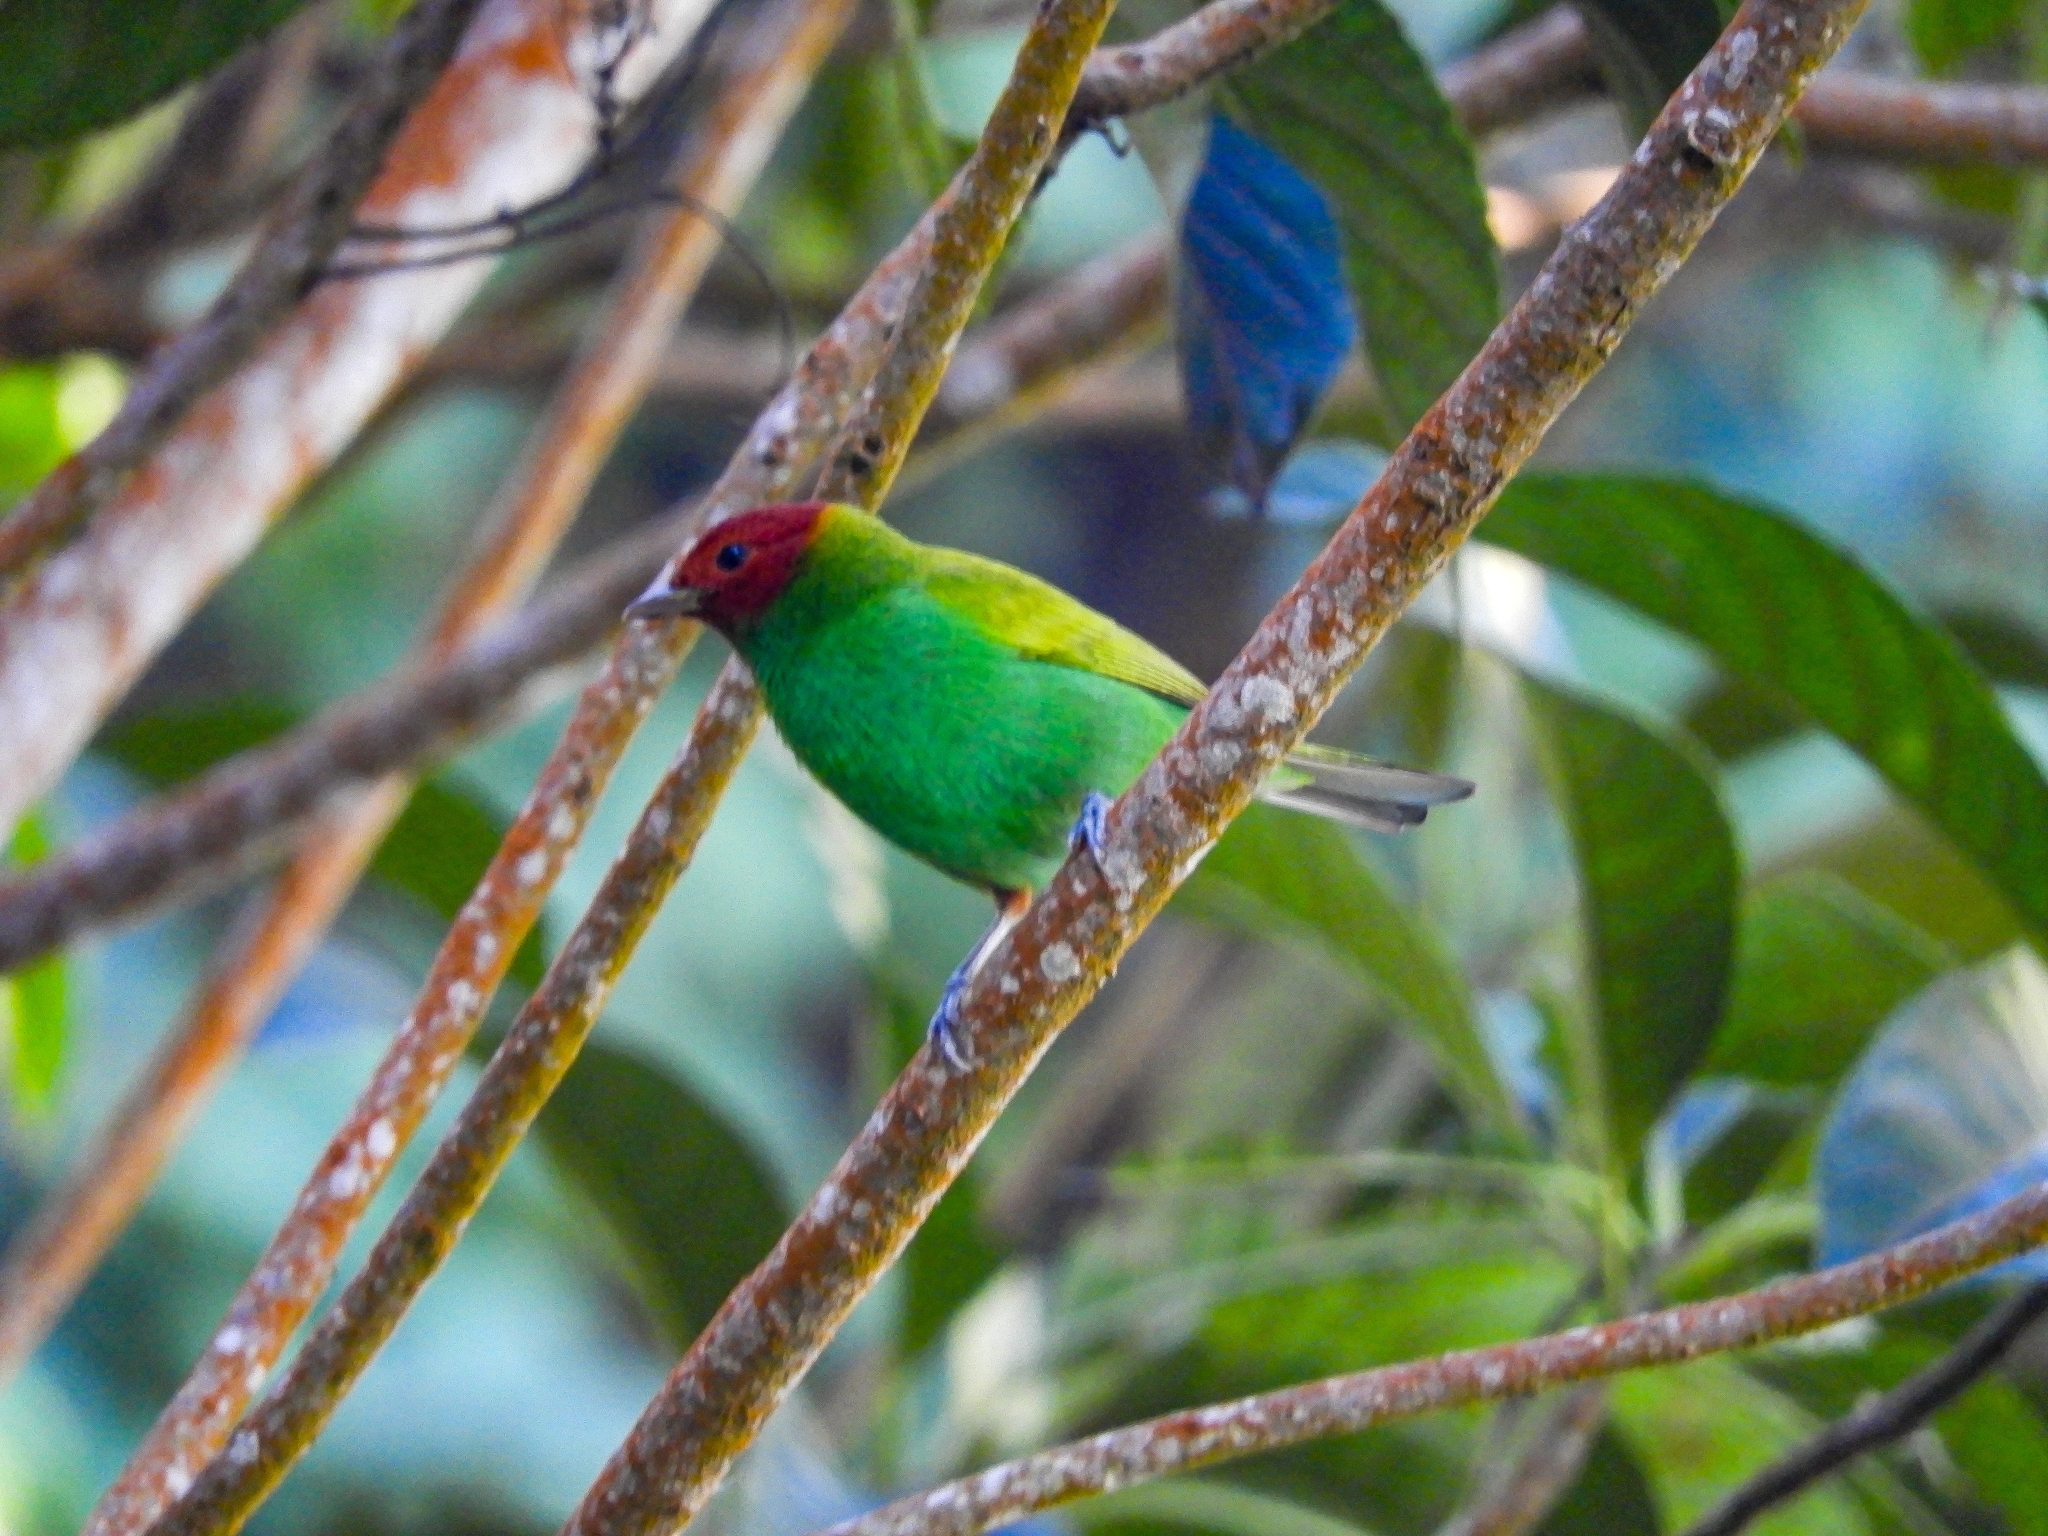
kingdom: Animalia
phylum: Chordata
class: Aves
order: Passeriformes
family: Thraupidae
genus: Tangara
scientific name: Tangara gyrola
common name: Bay-headed tanager
